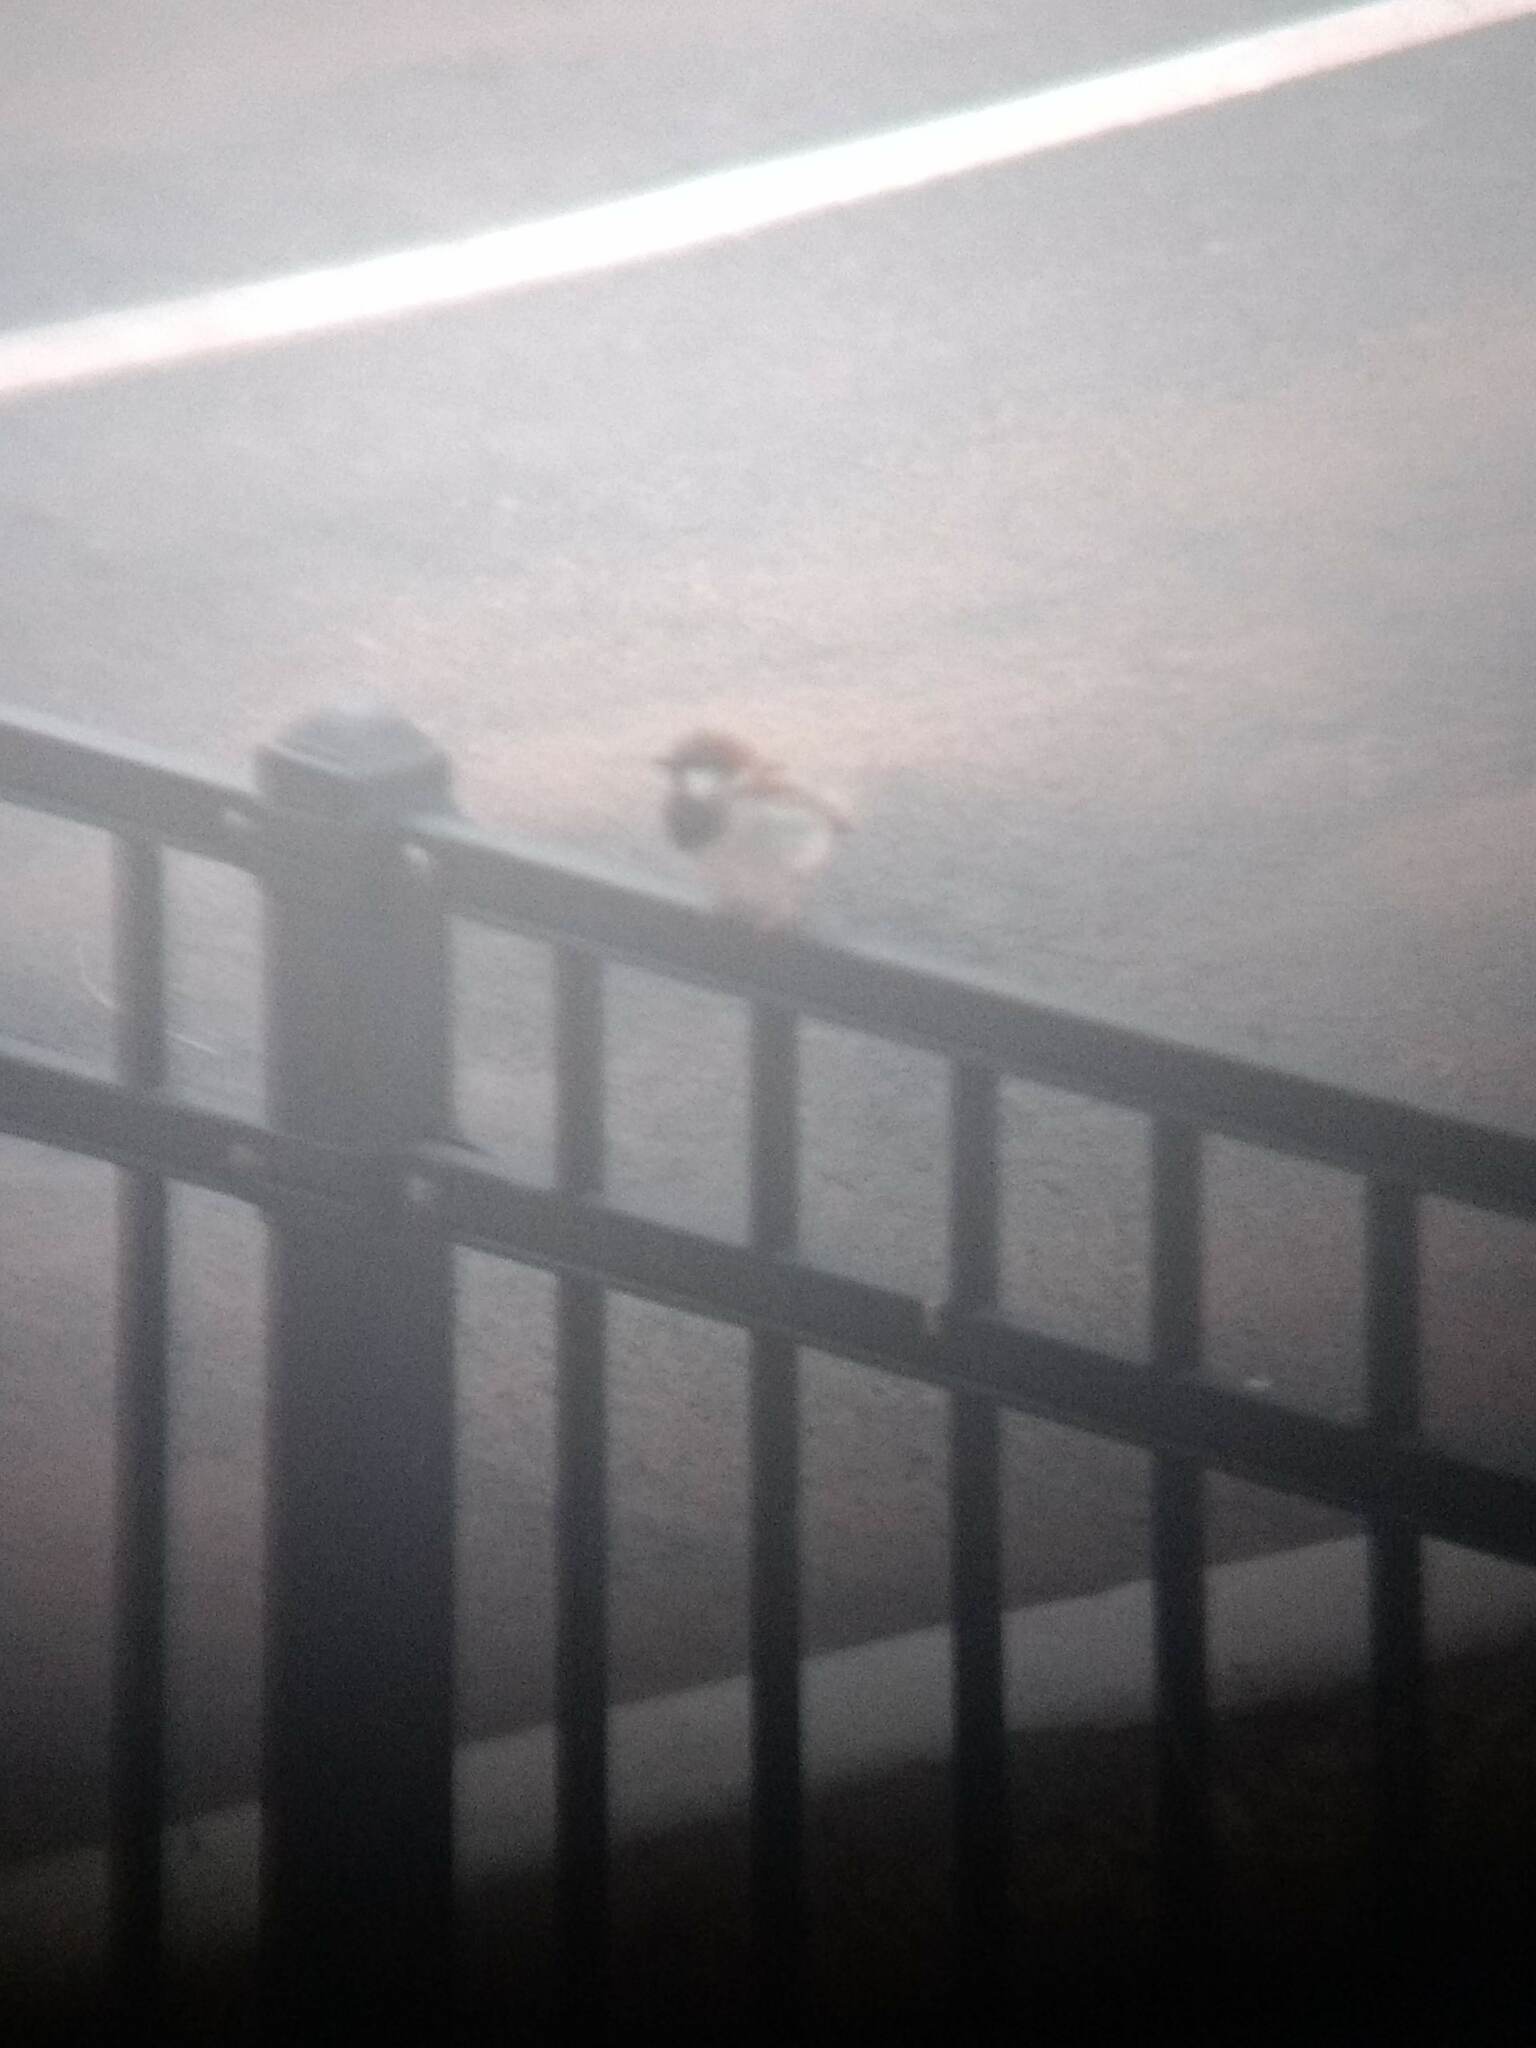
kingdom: Animalia
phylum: Chordata
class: Aves
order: Passeriformes
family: Passeridae
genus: Passer
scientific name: Passer domesticus
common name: House sparrow
